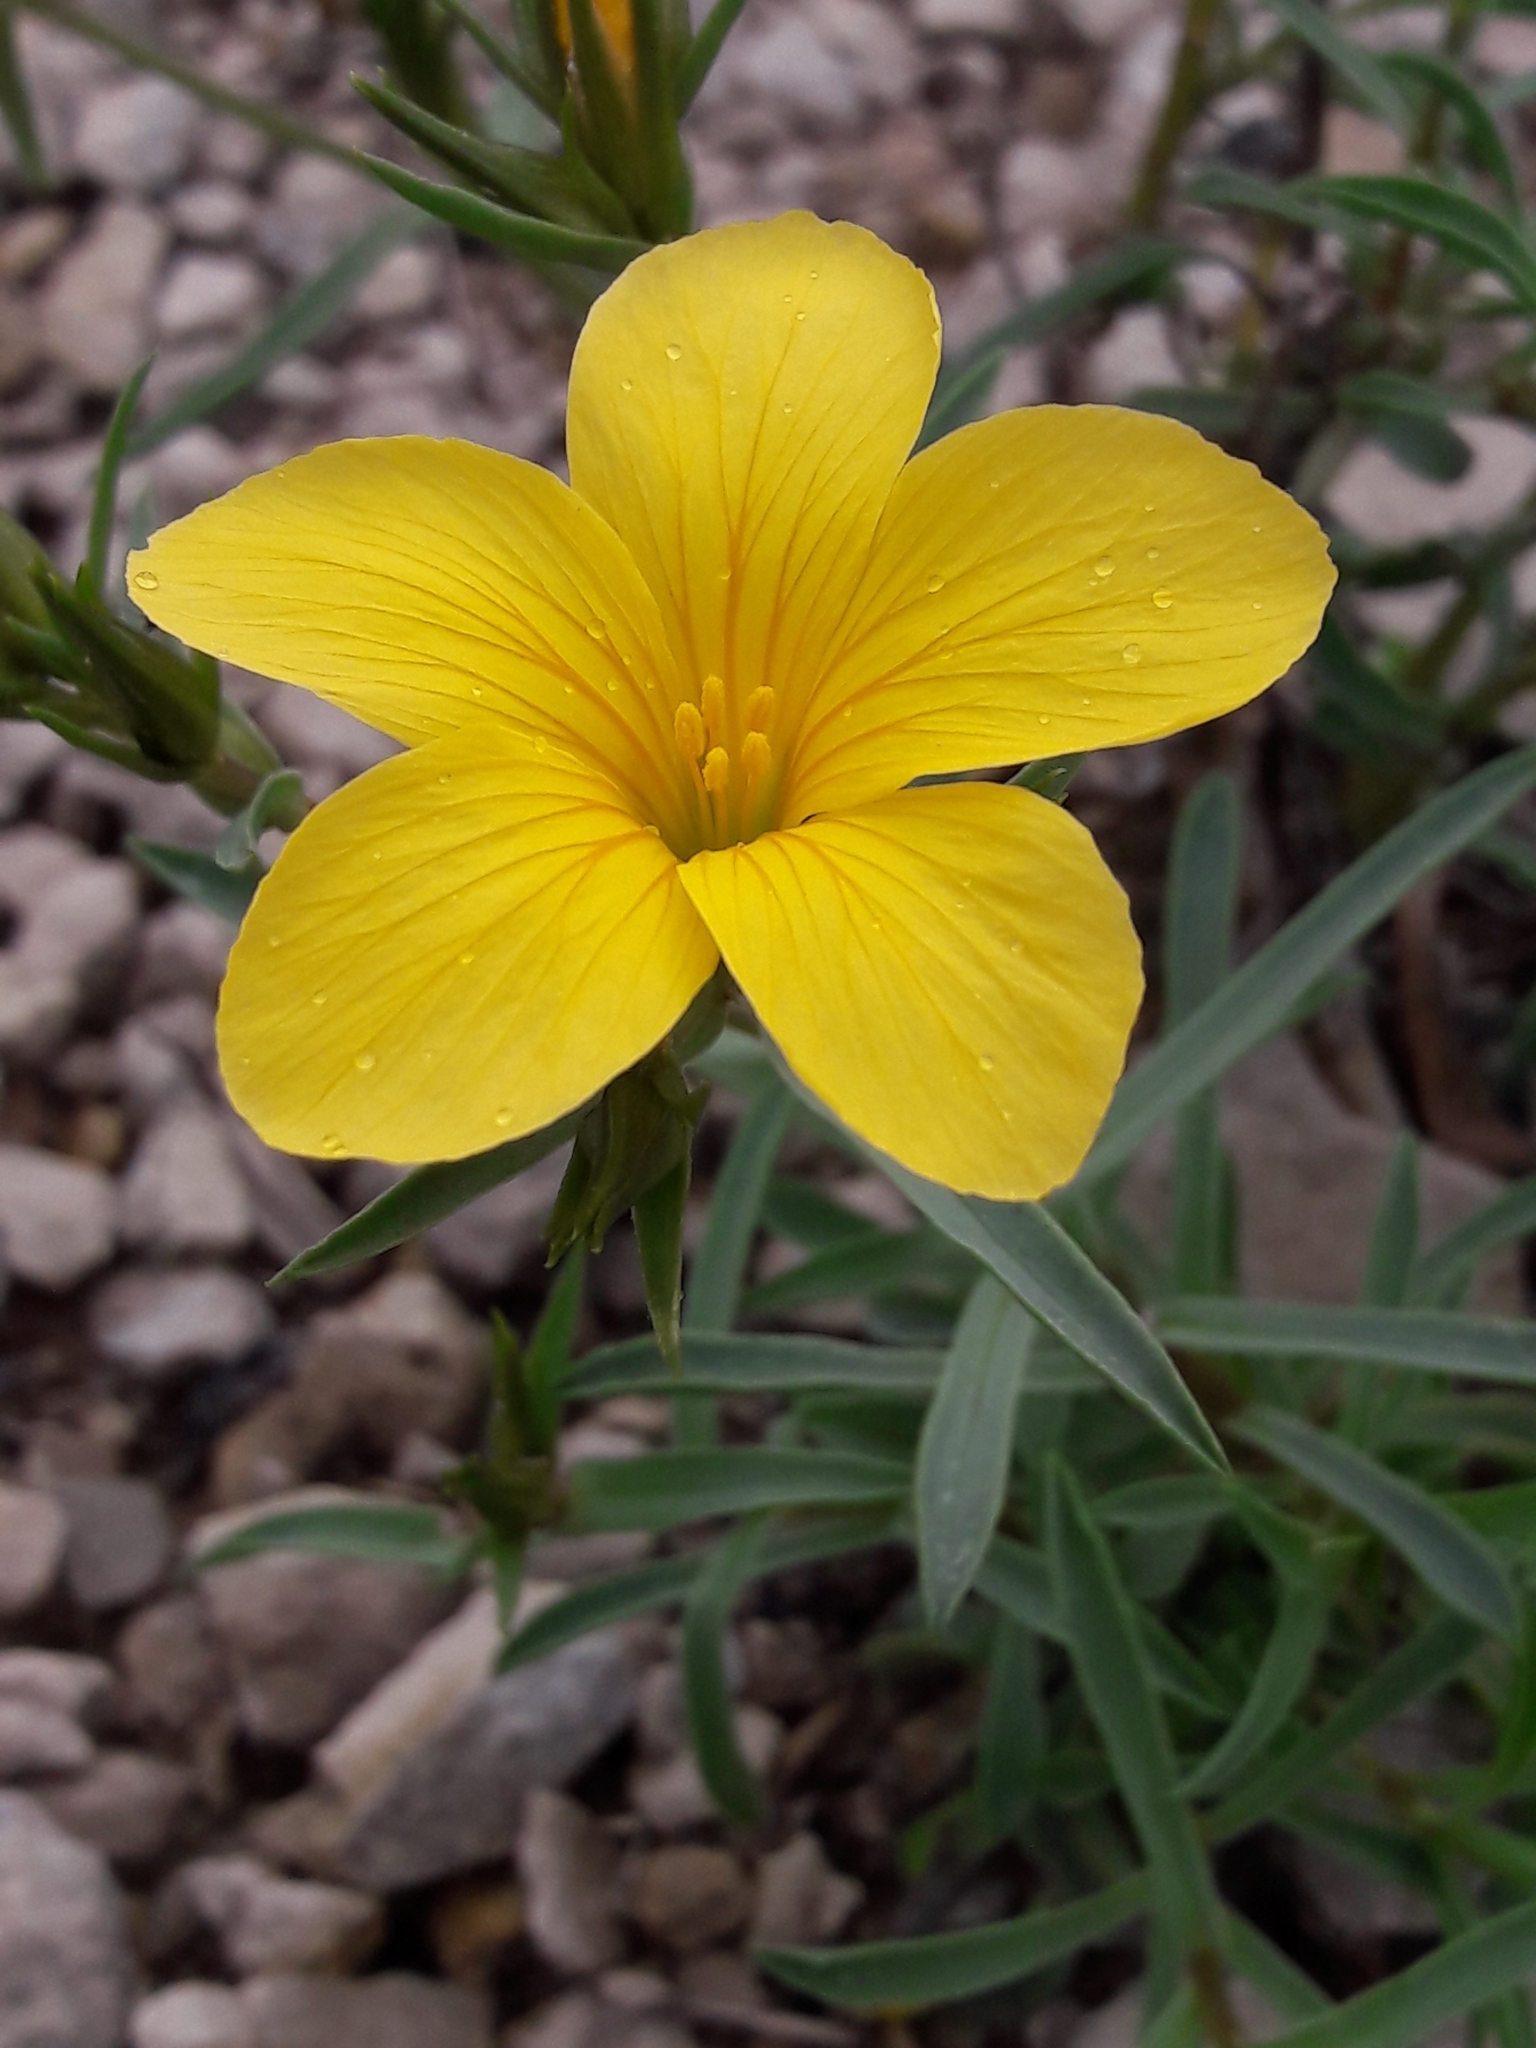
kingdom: Plantae
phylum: Tracheophyta
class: Magnoliopsida
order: Malpighiales
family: Linaceae
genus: Linum
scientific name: Linum campanulatum
